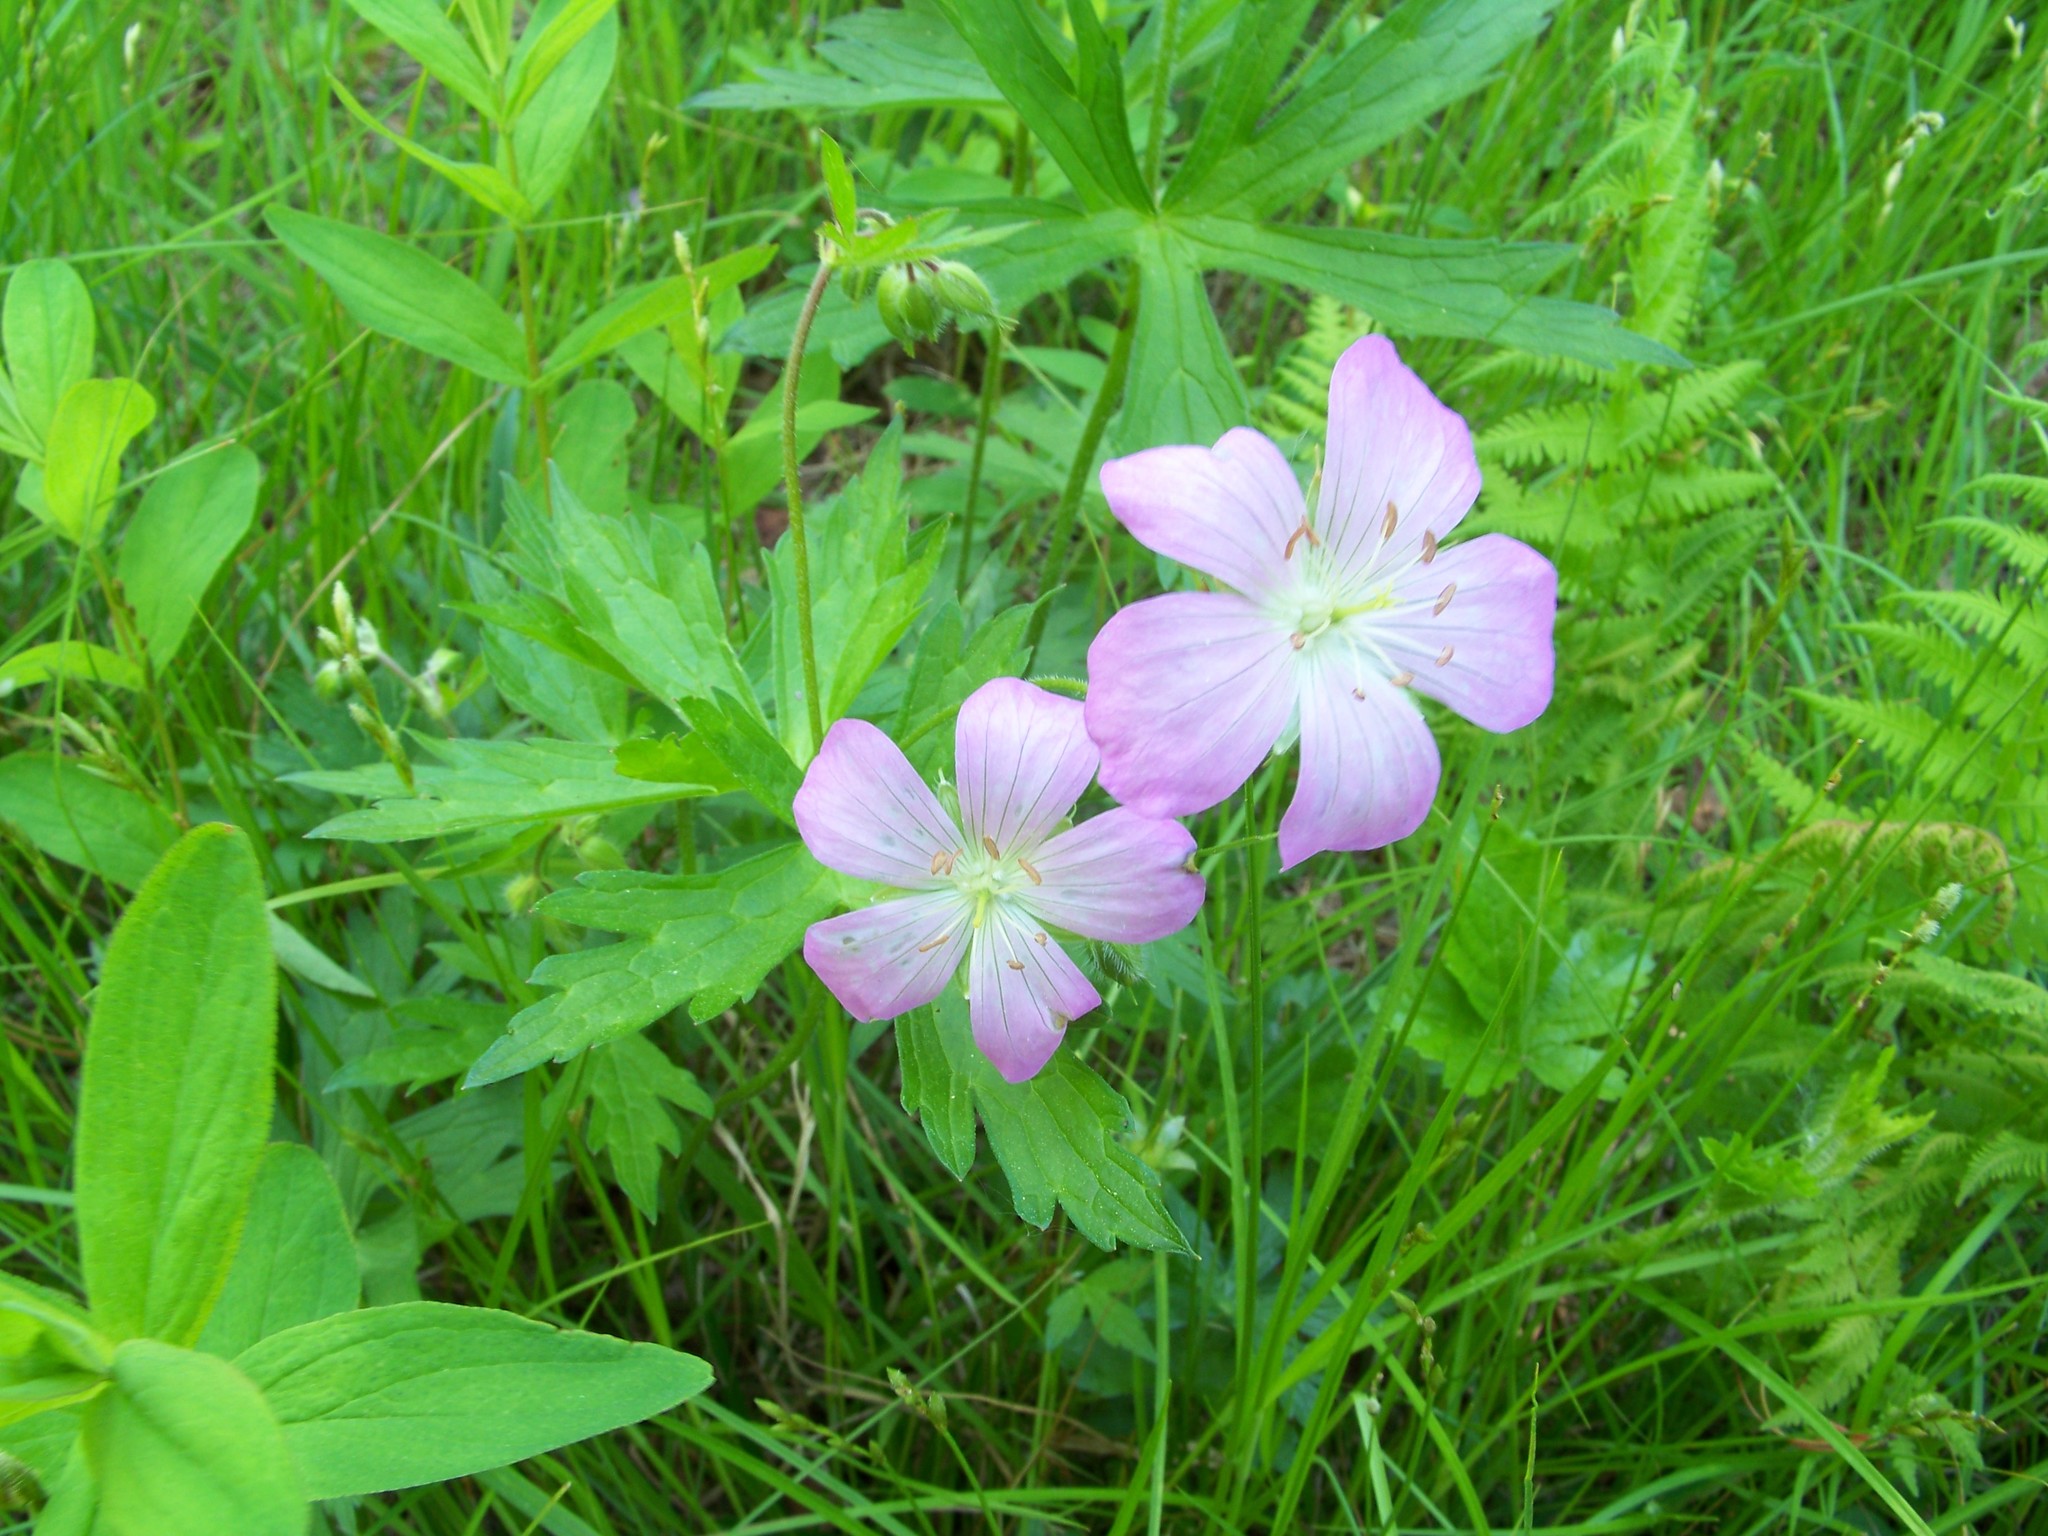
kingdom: Plantae
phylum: Tracheophyta
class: Magnoliopsida
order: Geraniales
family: Geraniaceae
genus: Geranium
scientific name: Geranium maculatum
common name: Spotted geranium
